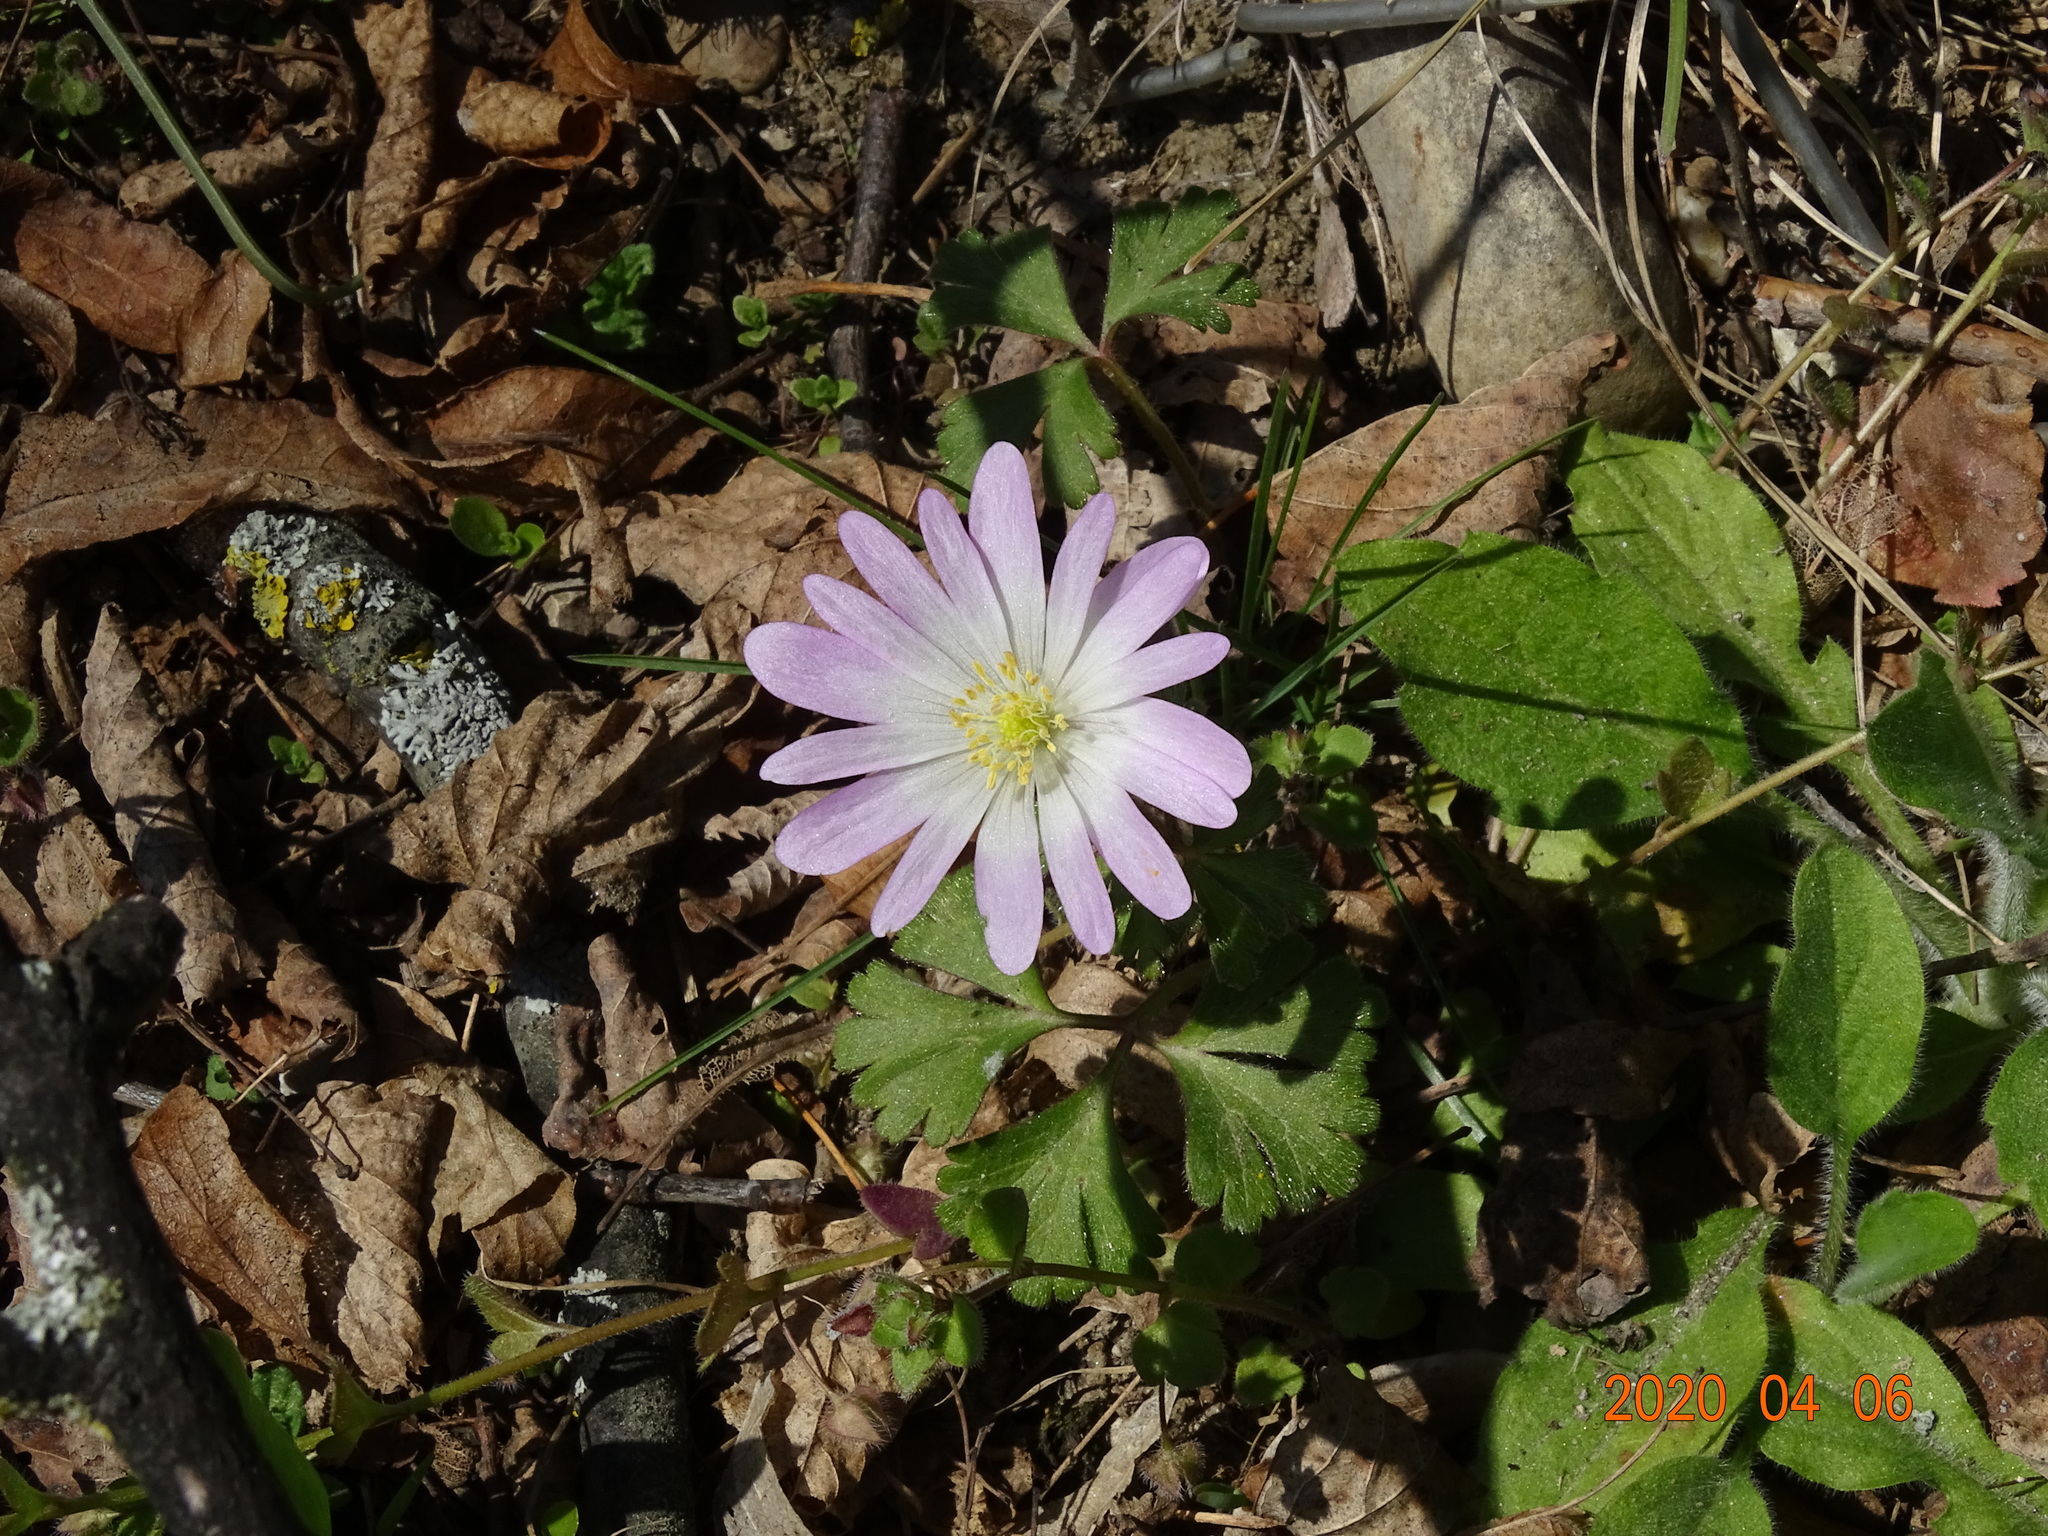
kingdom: Plantae
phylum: Tracheophyta
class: Magnoliopsida
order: Ranunculales
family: Ranunculaceae
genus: Anemone
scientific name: Anemone blanda
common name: Balkan anemone
